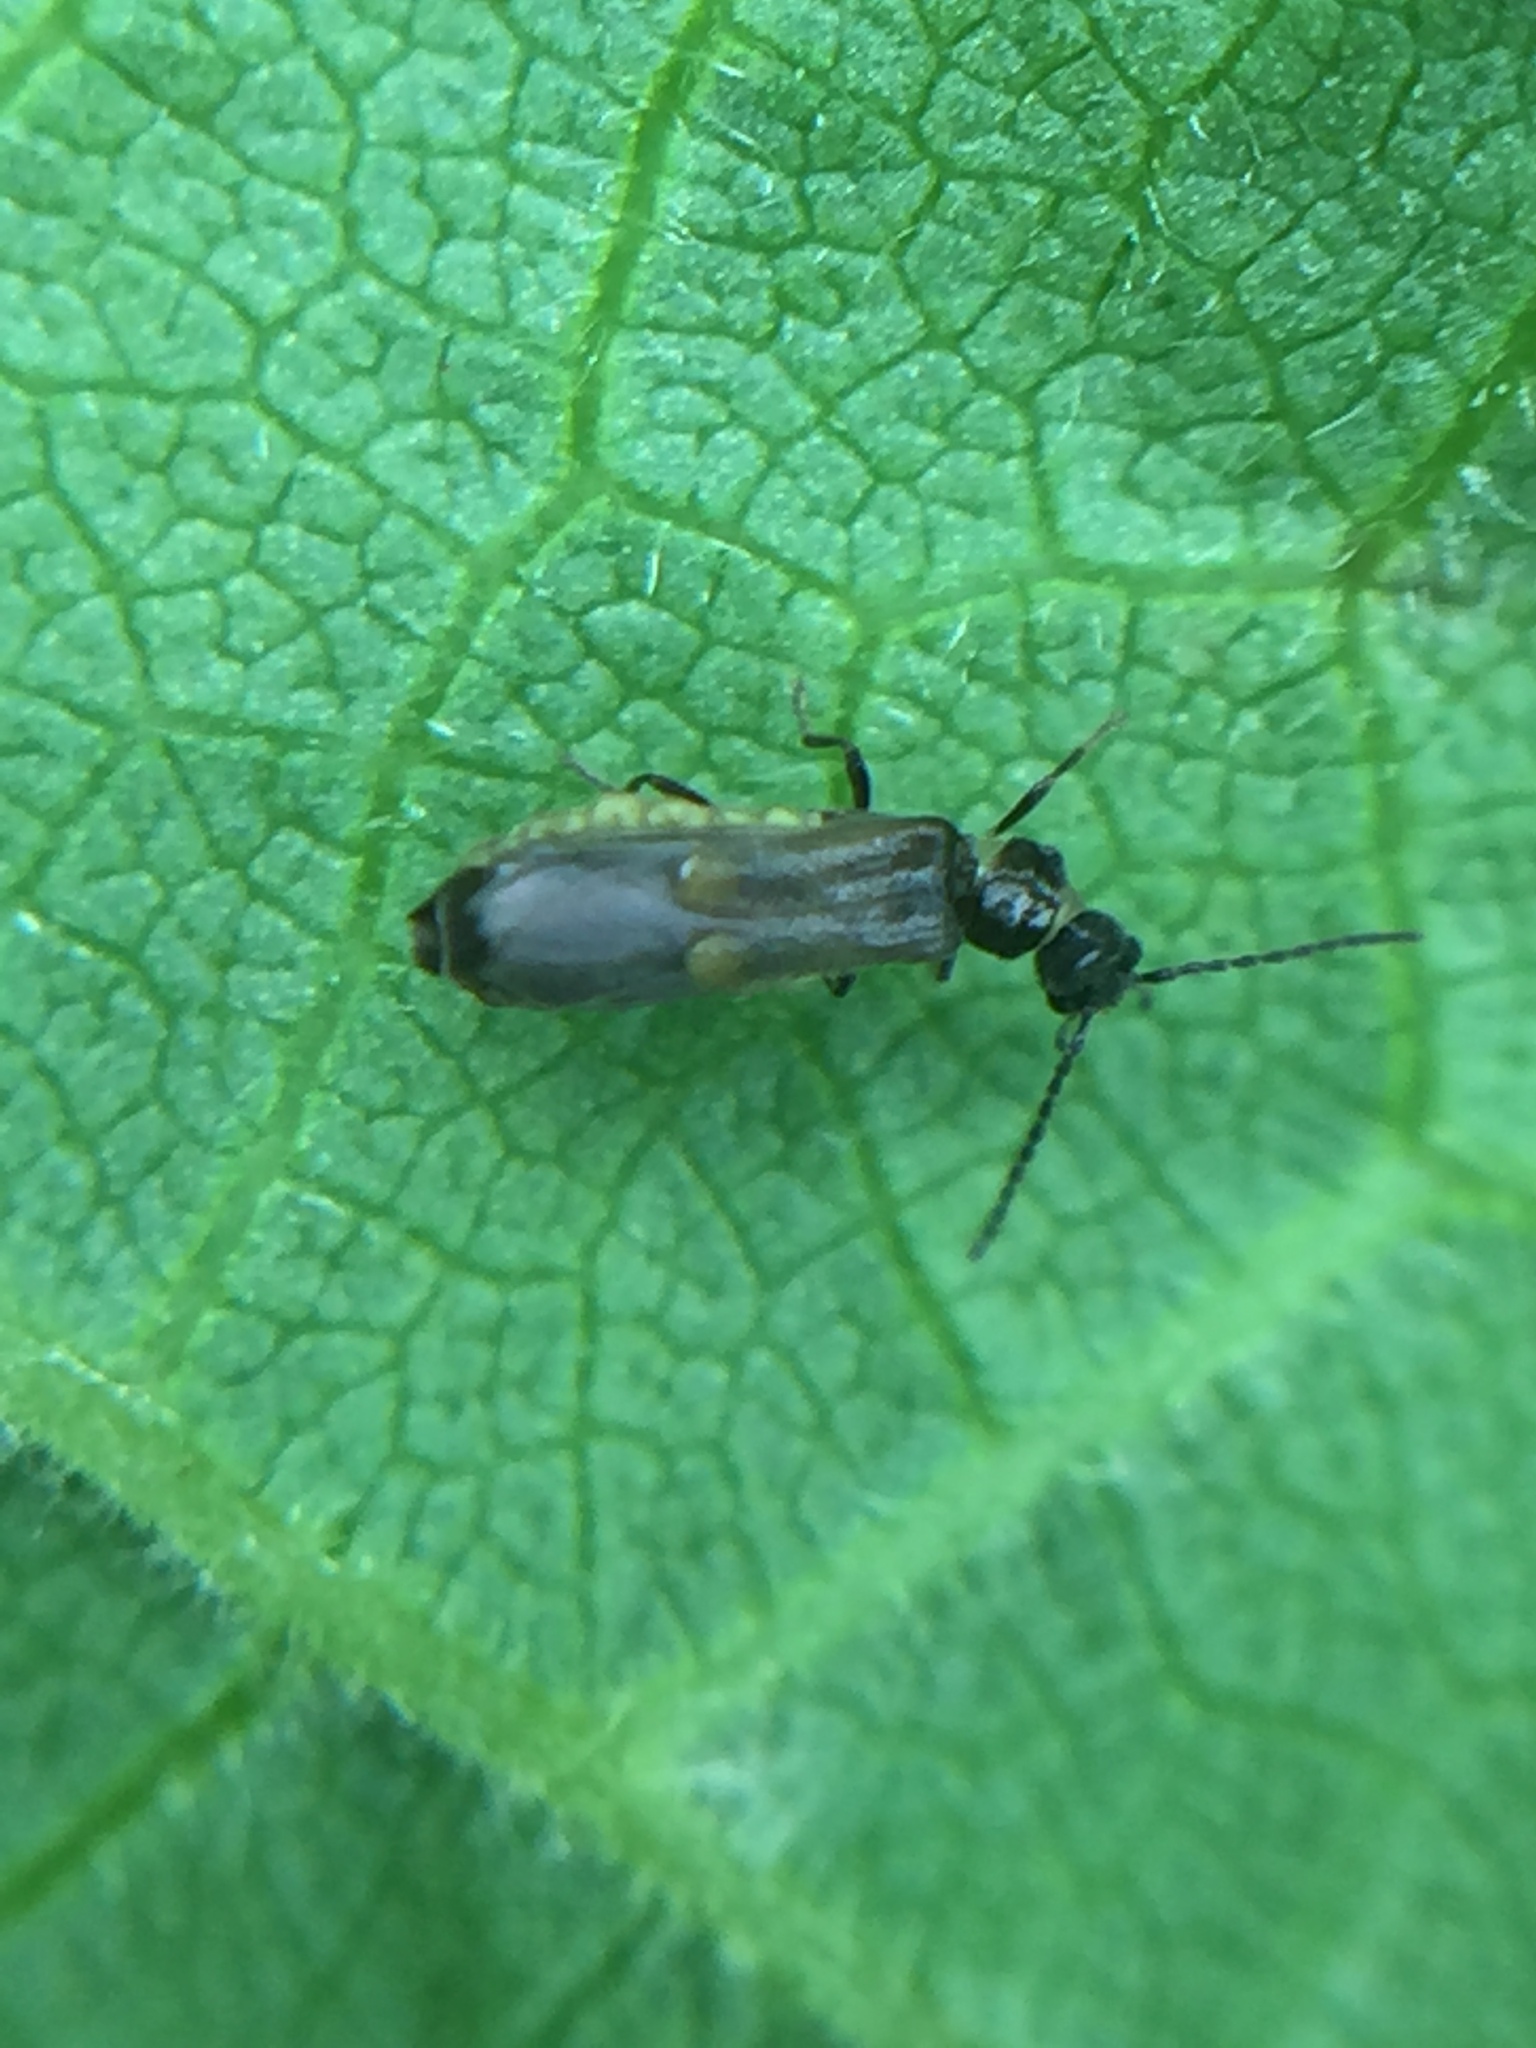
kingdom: Animalia
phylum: Arthropoda
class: Insecta
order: Coleoptera
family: Cantharidae
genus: Malthodes
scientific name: Malthodes pumilus
